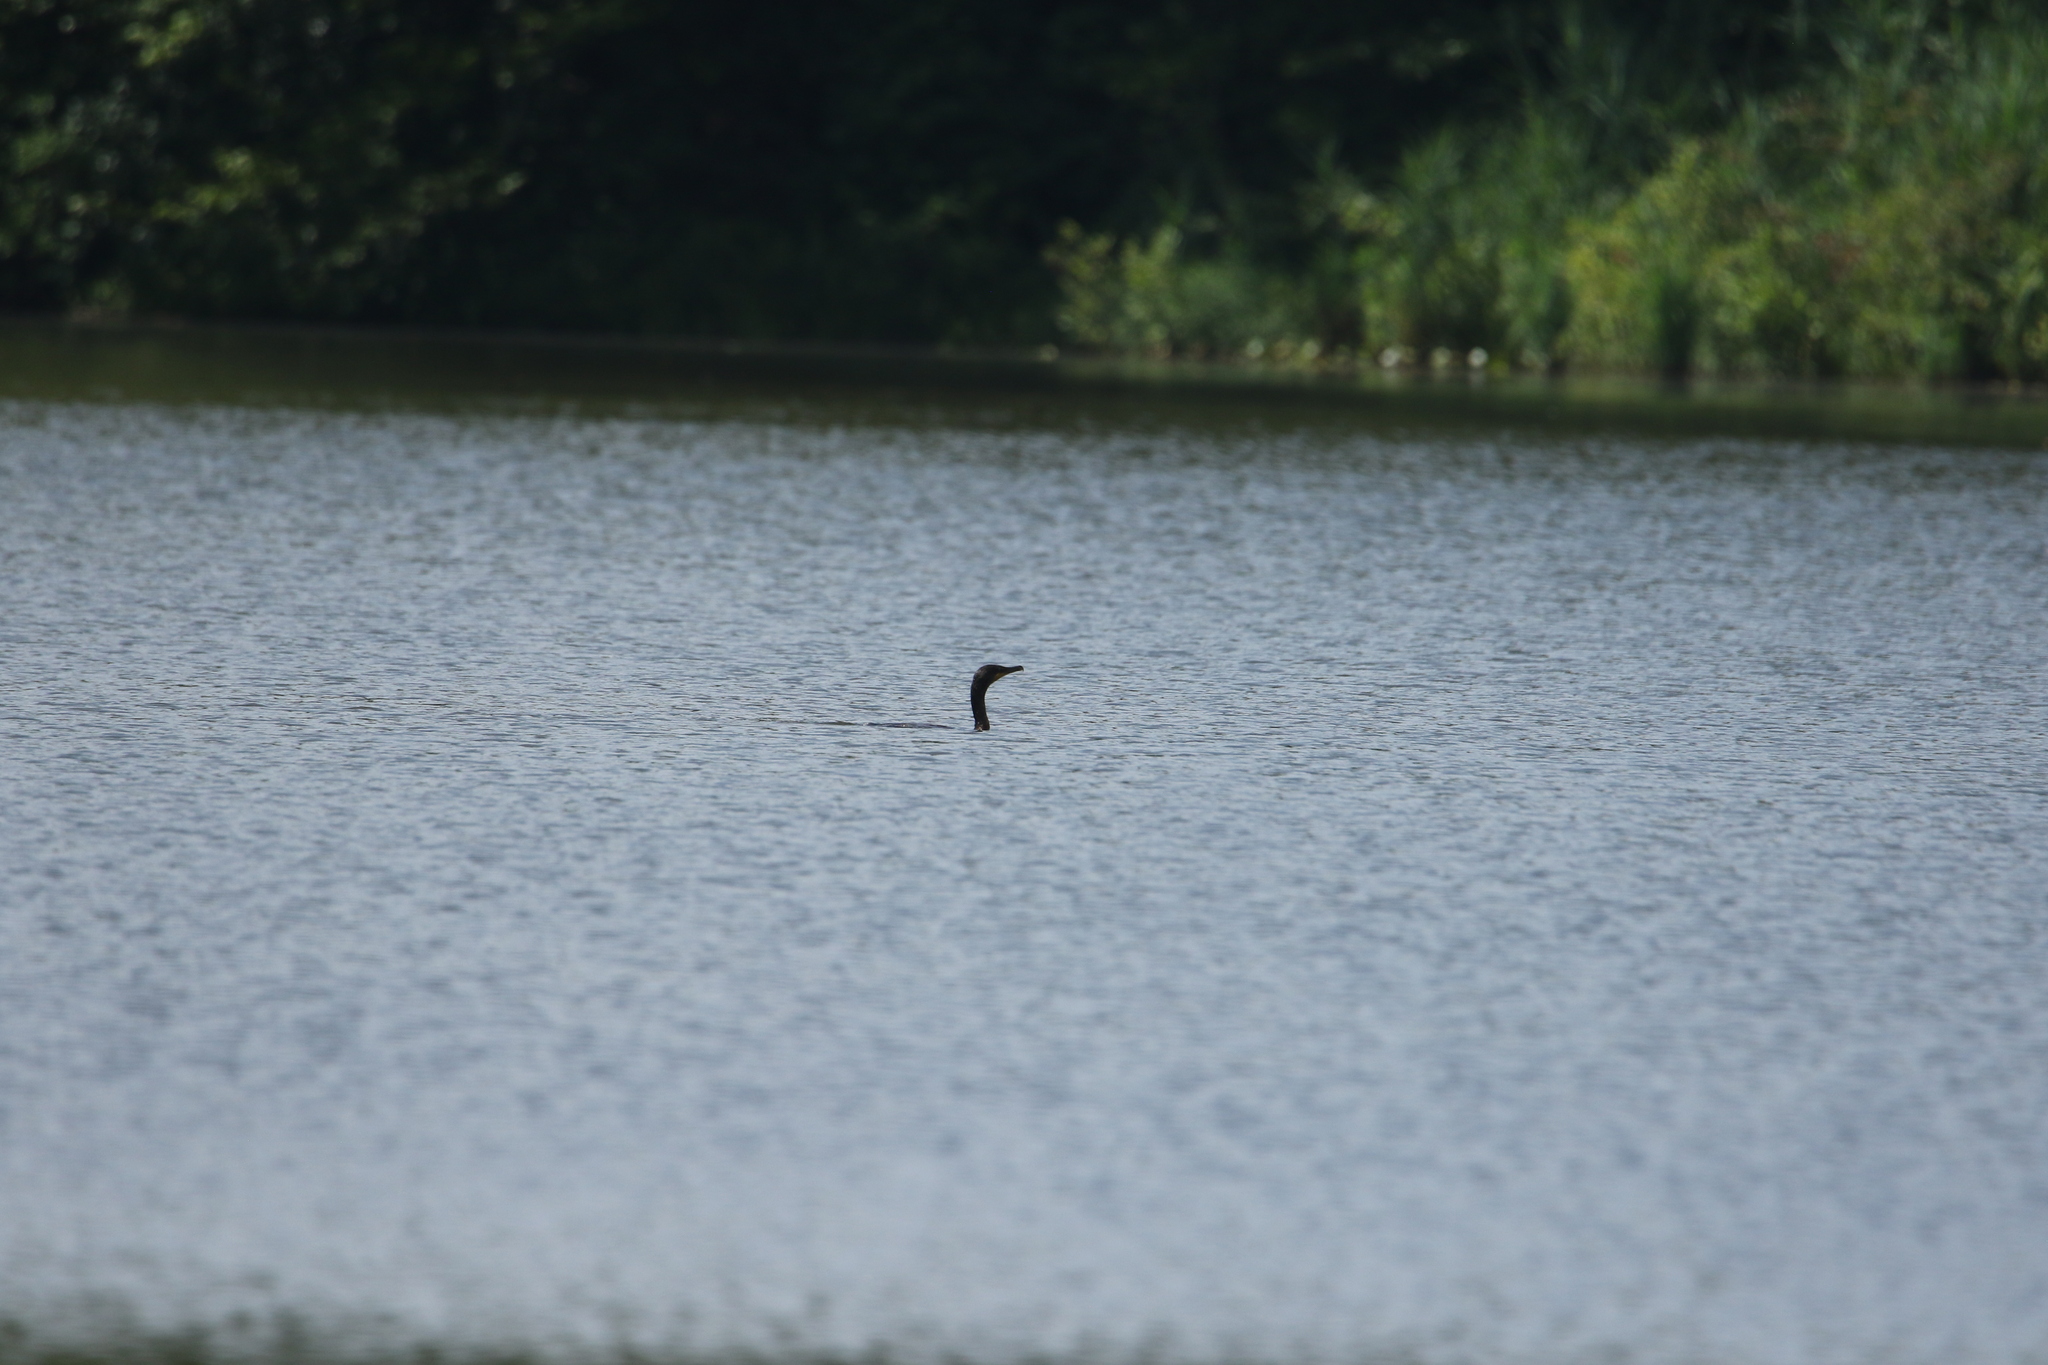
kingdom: Animalia
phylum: Chordata
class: Aves
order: Suliformes
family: Phalacrocoracidae
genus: Phalacrocorax
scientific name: Phalacrocorax auritus
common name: Double-crested cormorant
